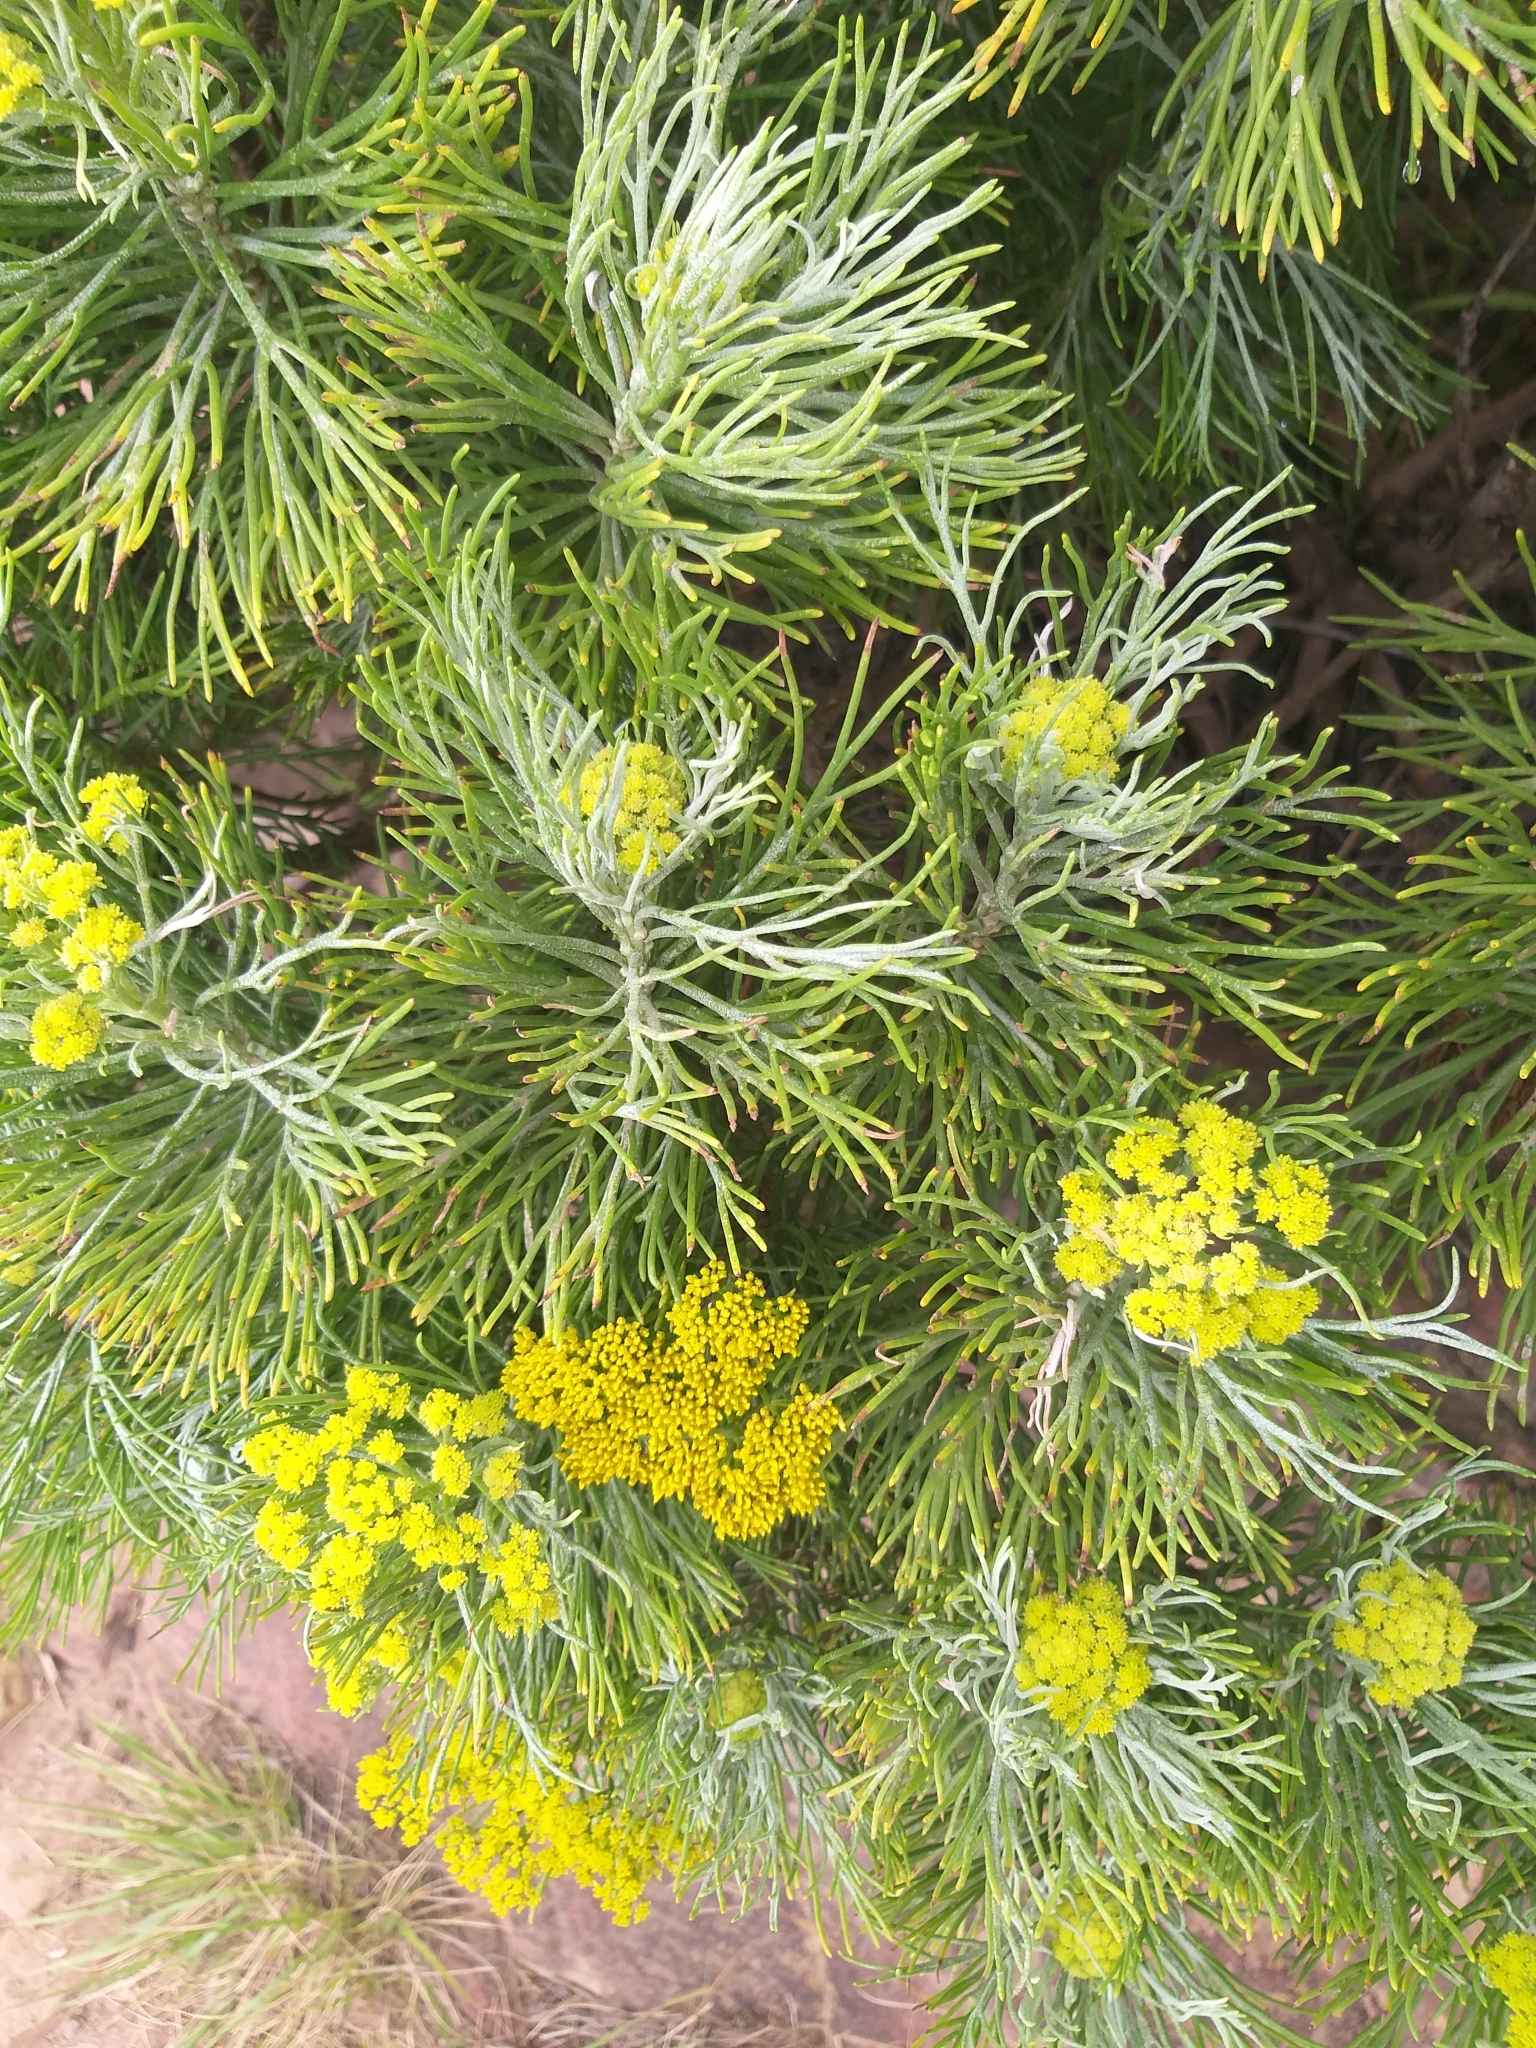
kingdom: Plantae
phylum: Tracheophyta
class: Magnoliopsida
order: Asterales
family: Asteraceae
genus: Hymenolepis
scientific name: Hymenolepis crithmifolia
